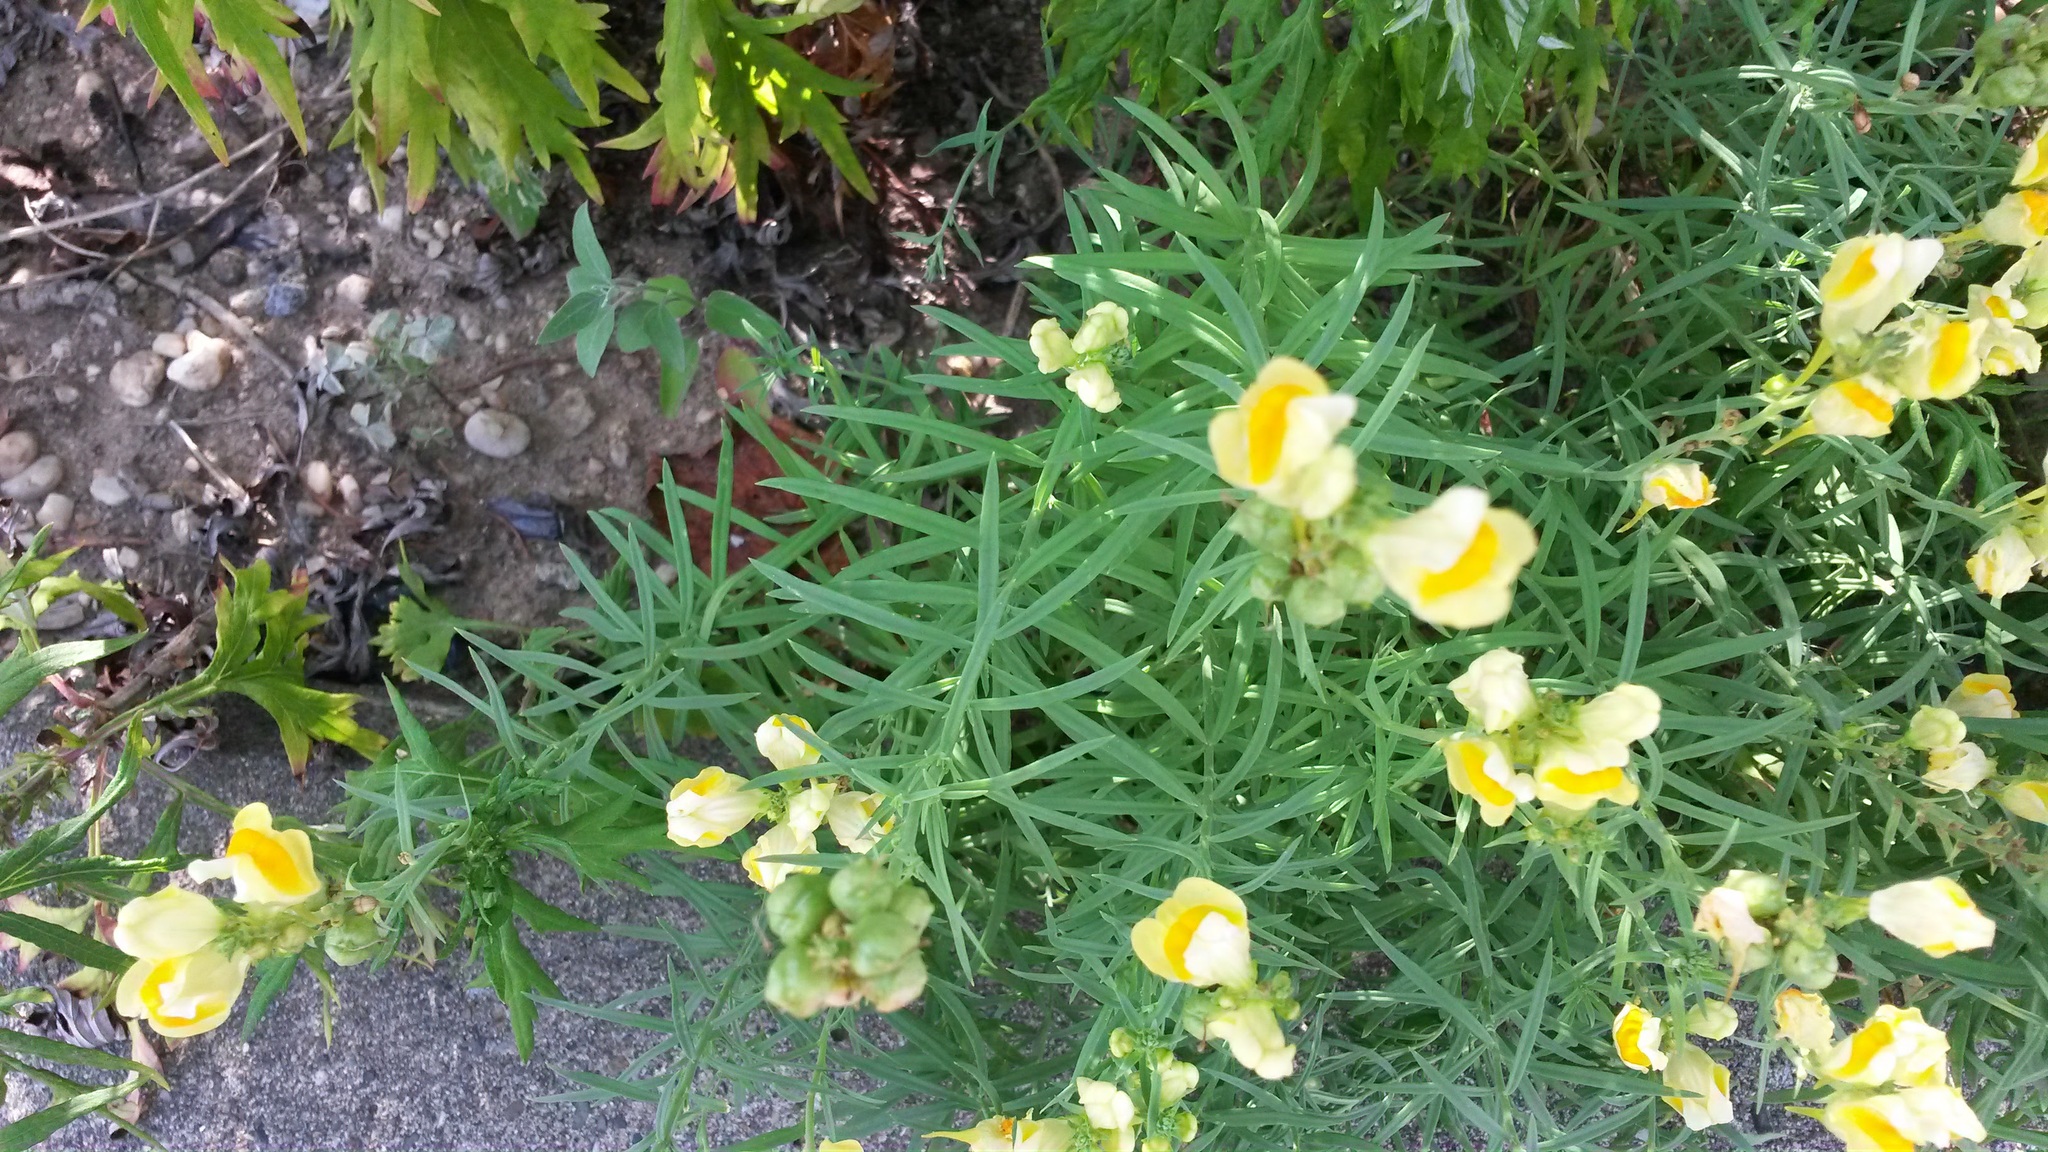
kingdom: Plantae
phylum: Tracheophyta
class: Magnoliopsida
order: Lamiales
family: Plantaginaceae
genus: Linaria
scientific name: Linaria vulgaris
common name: Butter and eggs
